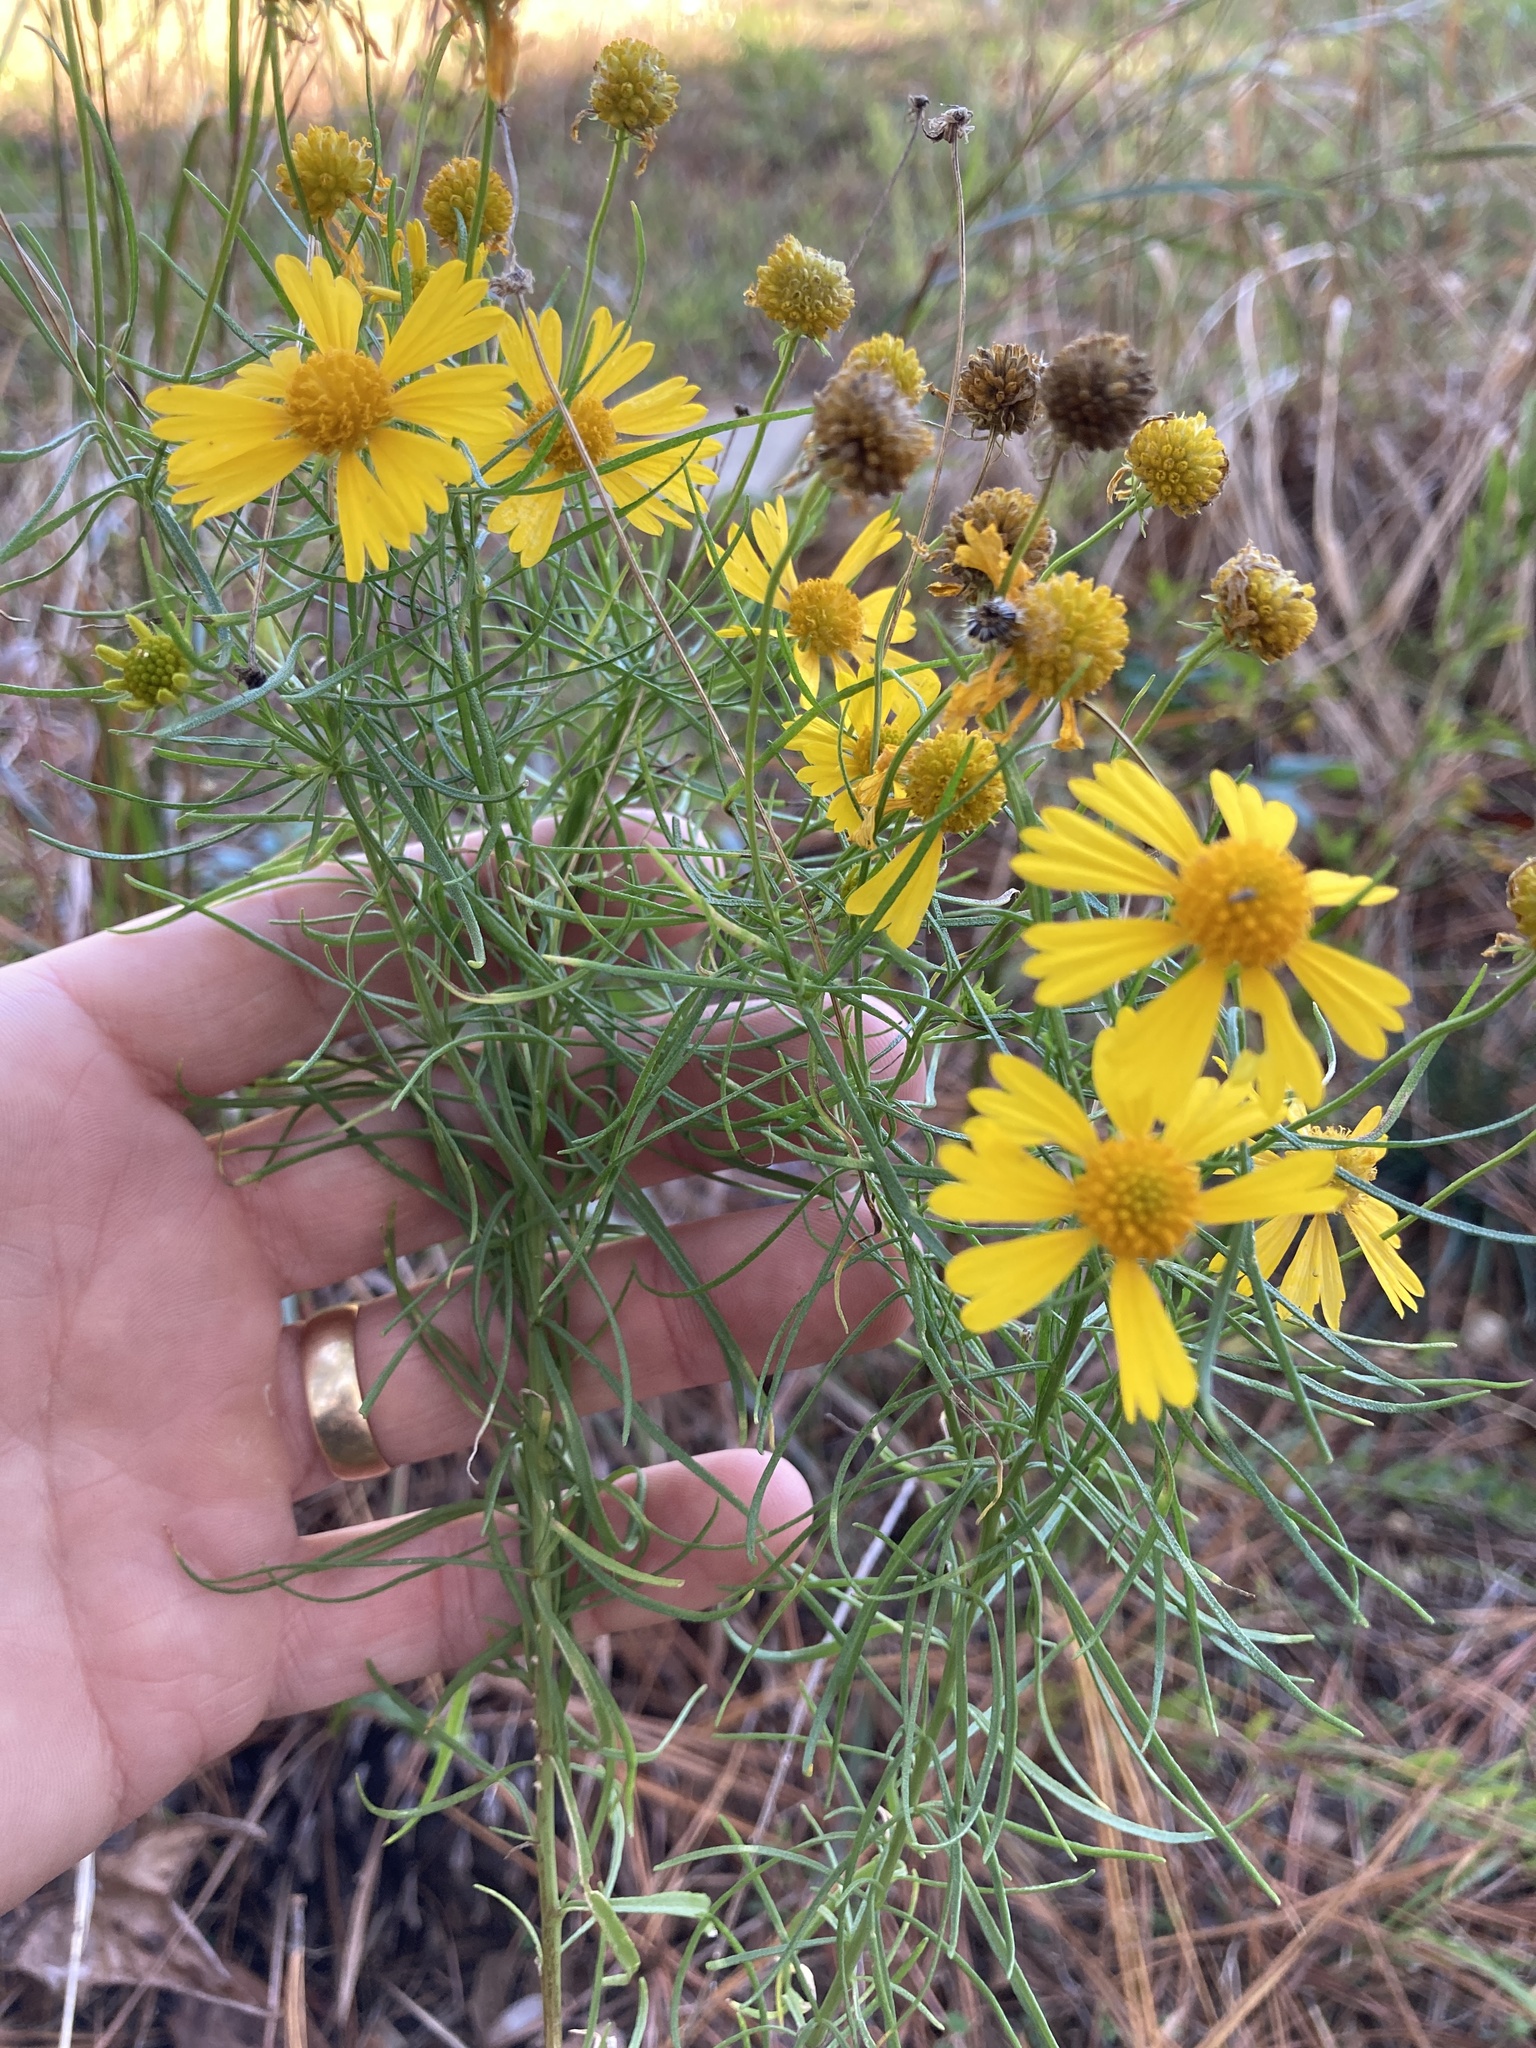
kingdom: Plantae
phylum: Tracheophyta
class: Magnoliopsida
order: Asterales
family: Asteraceae
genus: Helenium
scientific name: Helenium amarum
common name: Bitter sneezeweed
